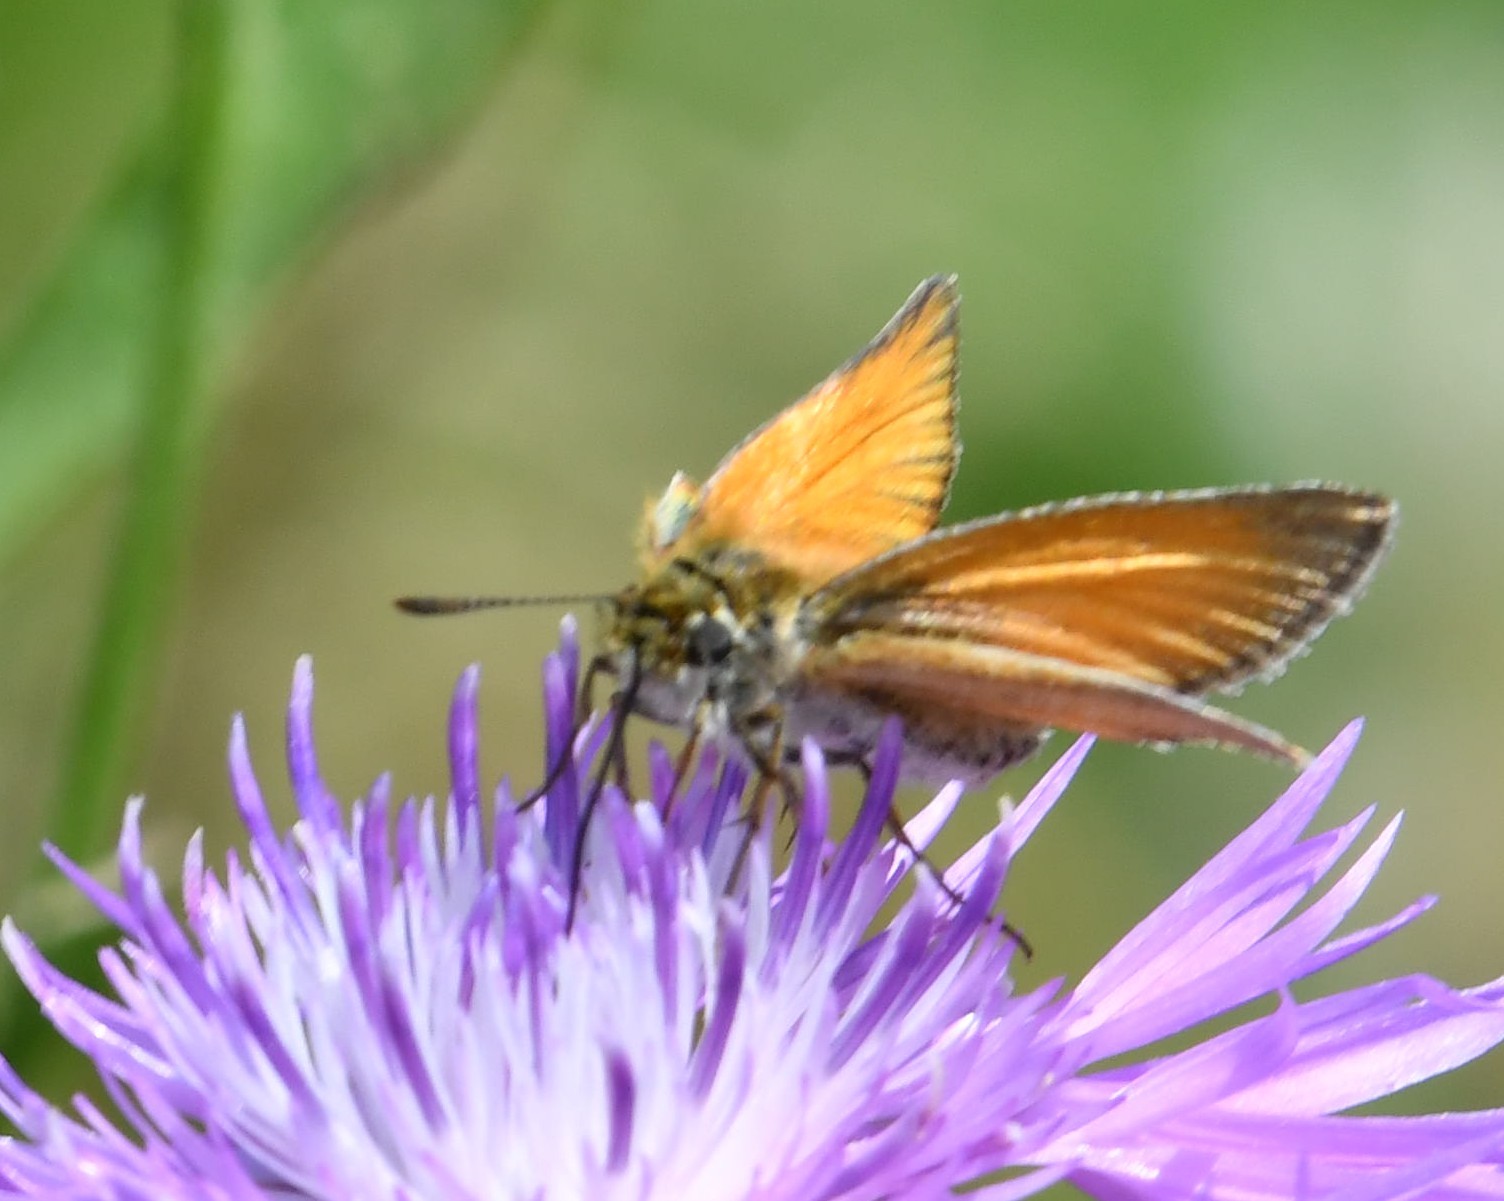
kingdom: Animalia
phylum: Arthropoda
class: Insecta
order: Lepidoptera
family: Hesperiidae
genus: Thymelicus
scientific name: Thymelicus lineola
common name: Essex skipper
